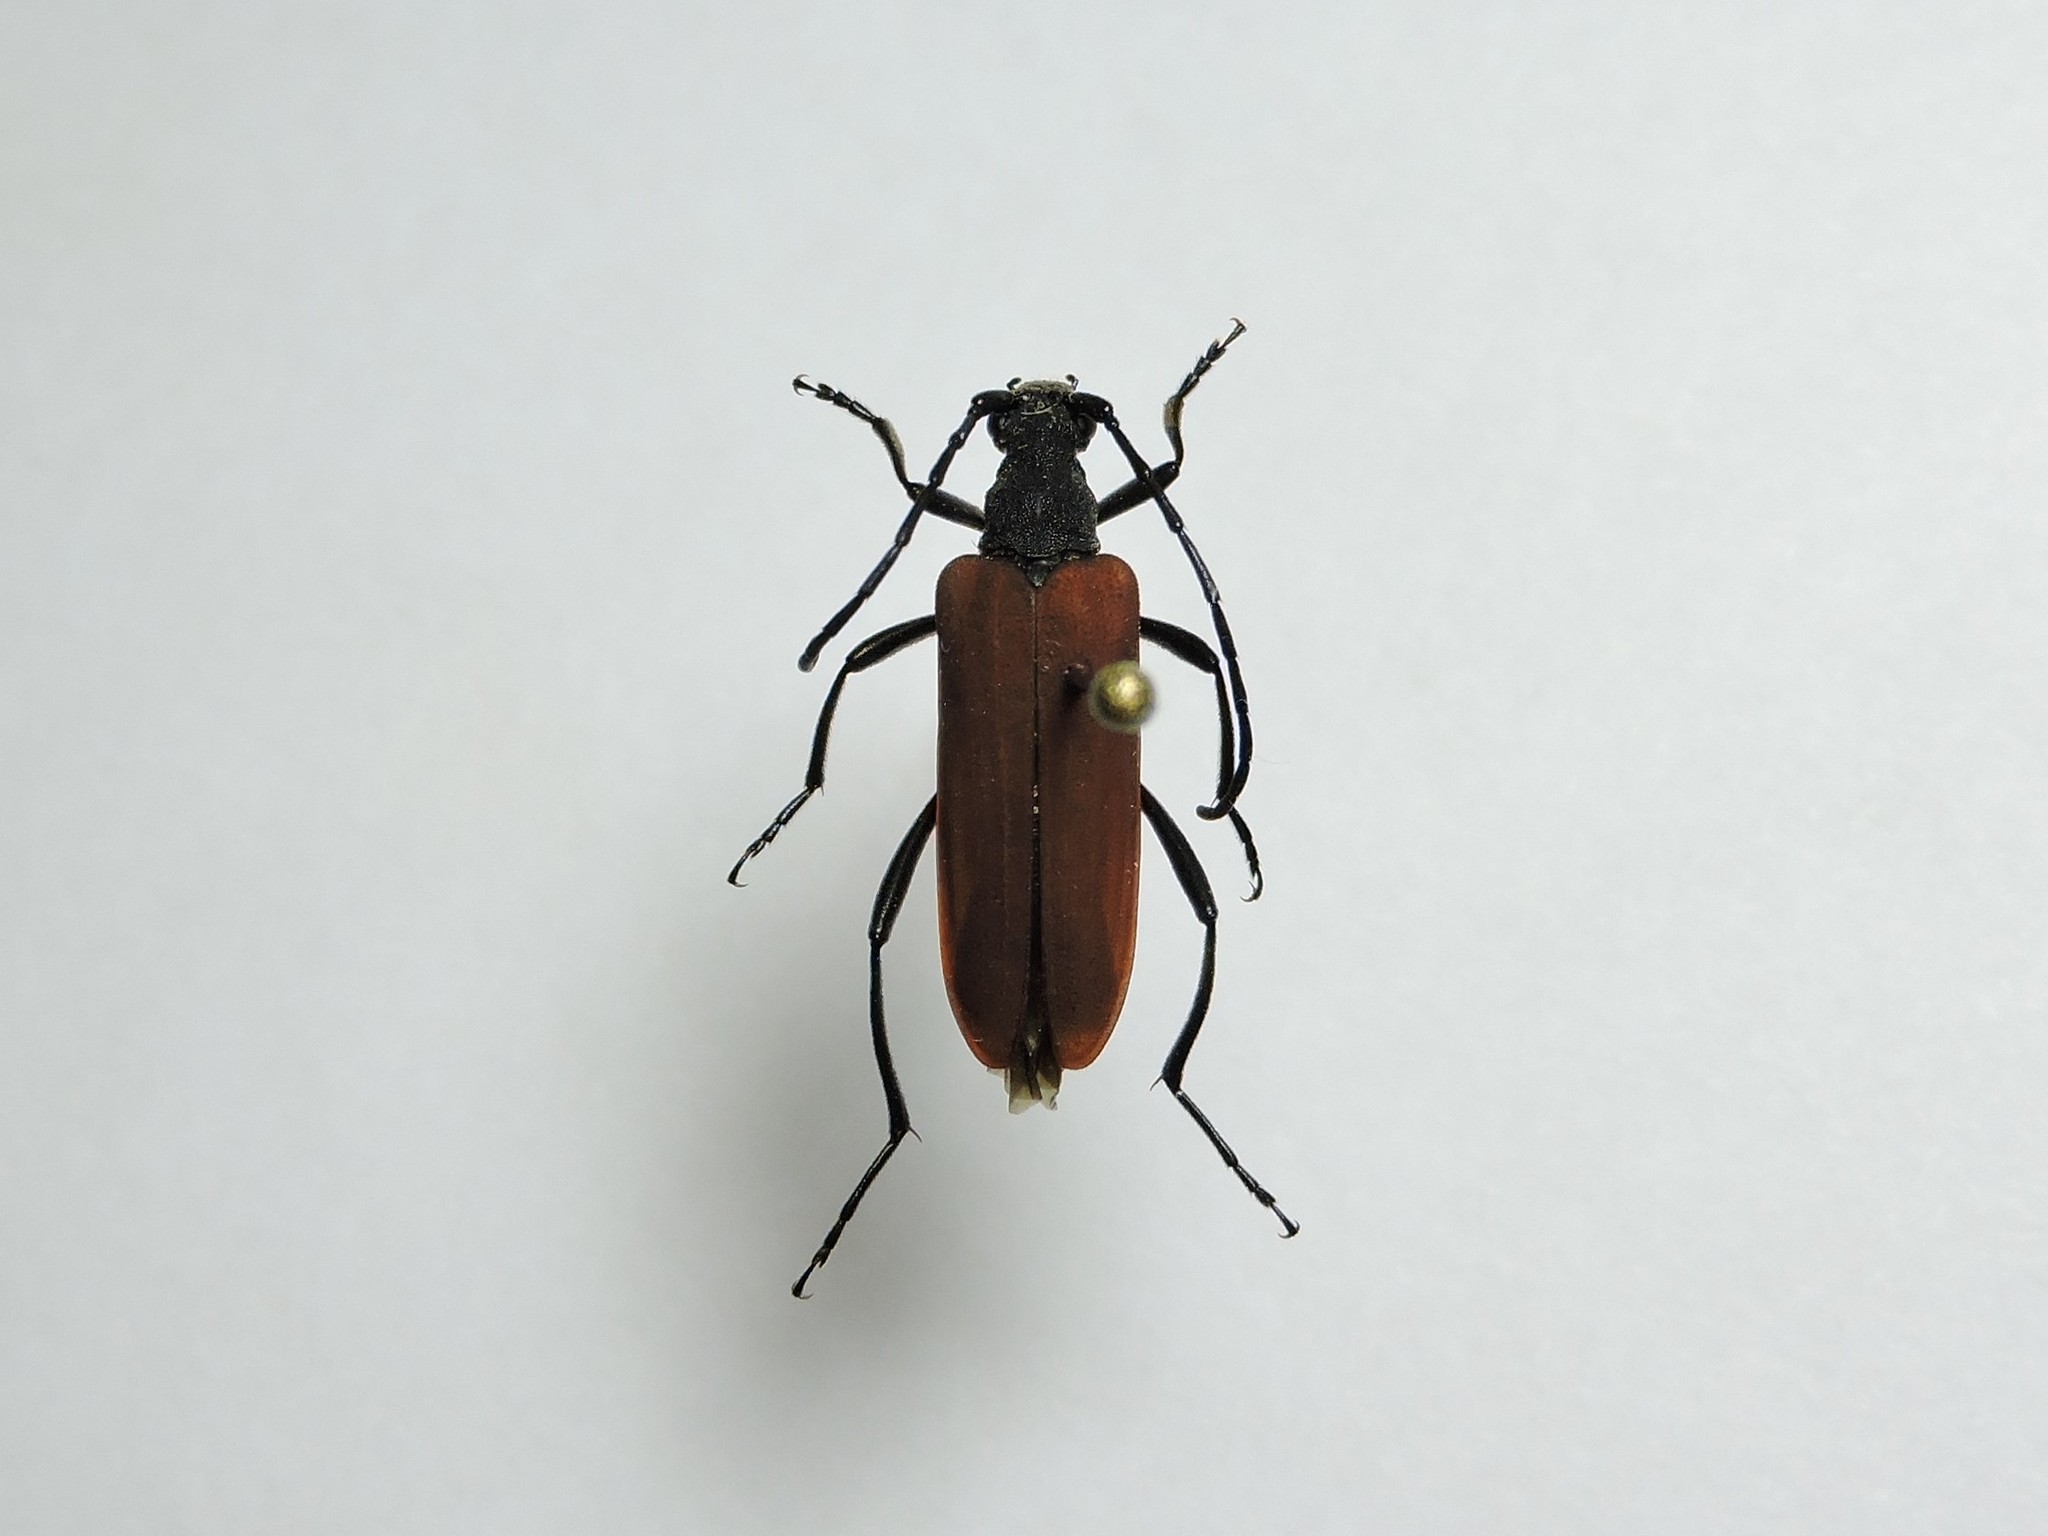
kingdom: Animalia
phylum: Arthropoda
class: Insecta
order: Coleoptera
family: Cerambycidae
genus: Nivellia
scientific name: Nivellia sanguinosa
